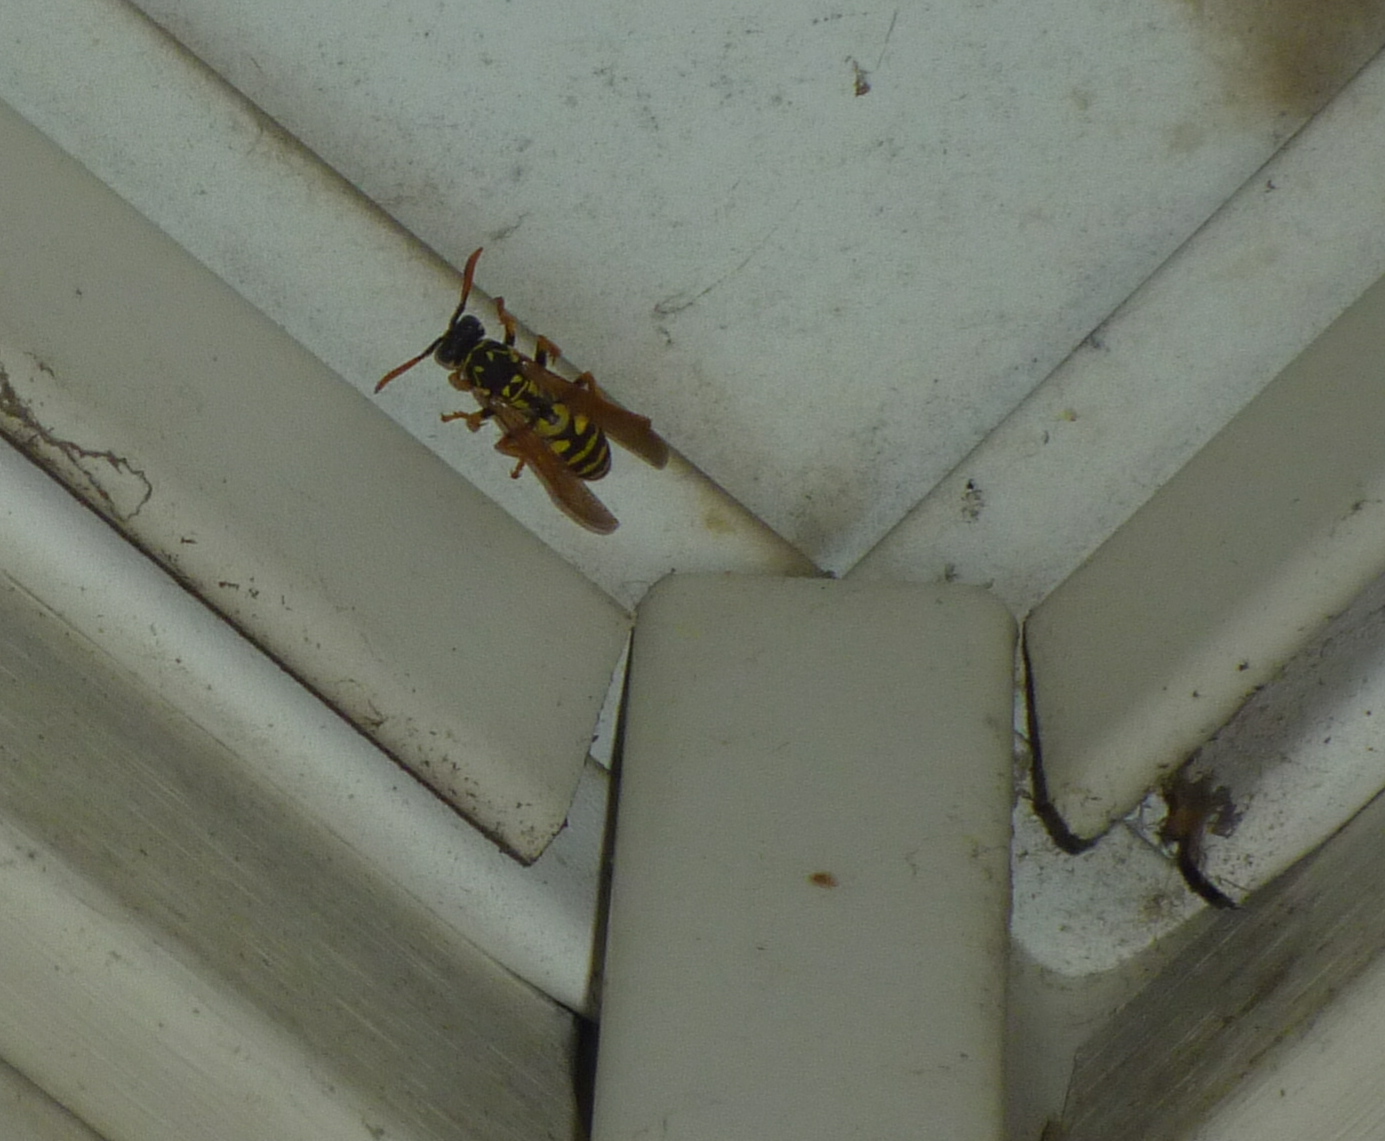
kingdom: Animalia
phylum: Arthropoda
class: Insecta
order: Hymenoptera
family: Eumenidae
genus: Polistes
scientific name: Polistes dominula
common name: Paper wasp
